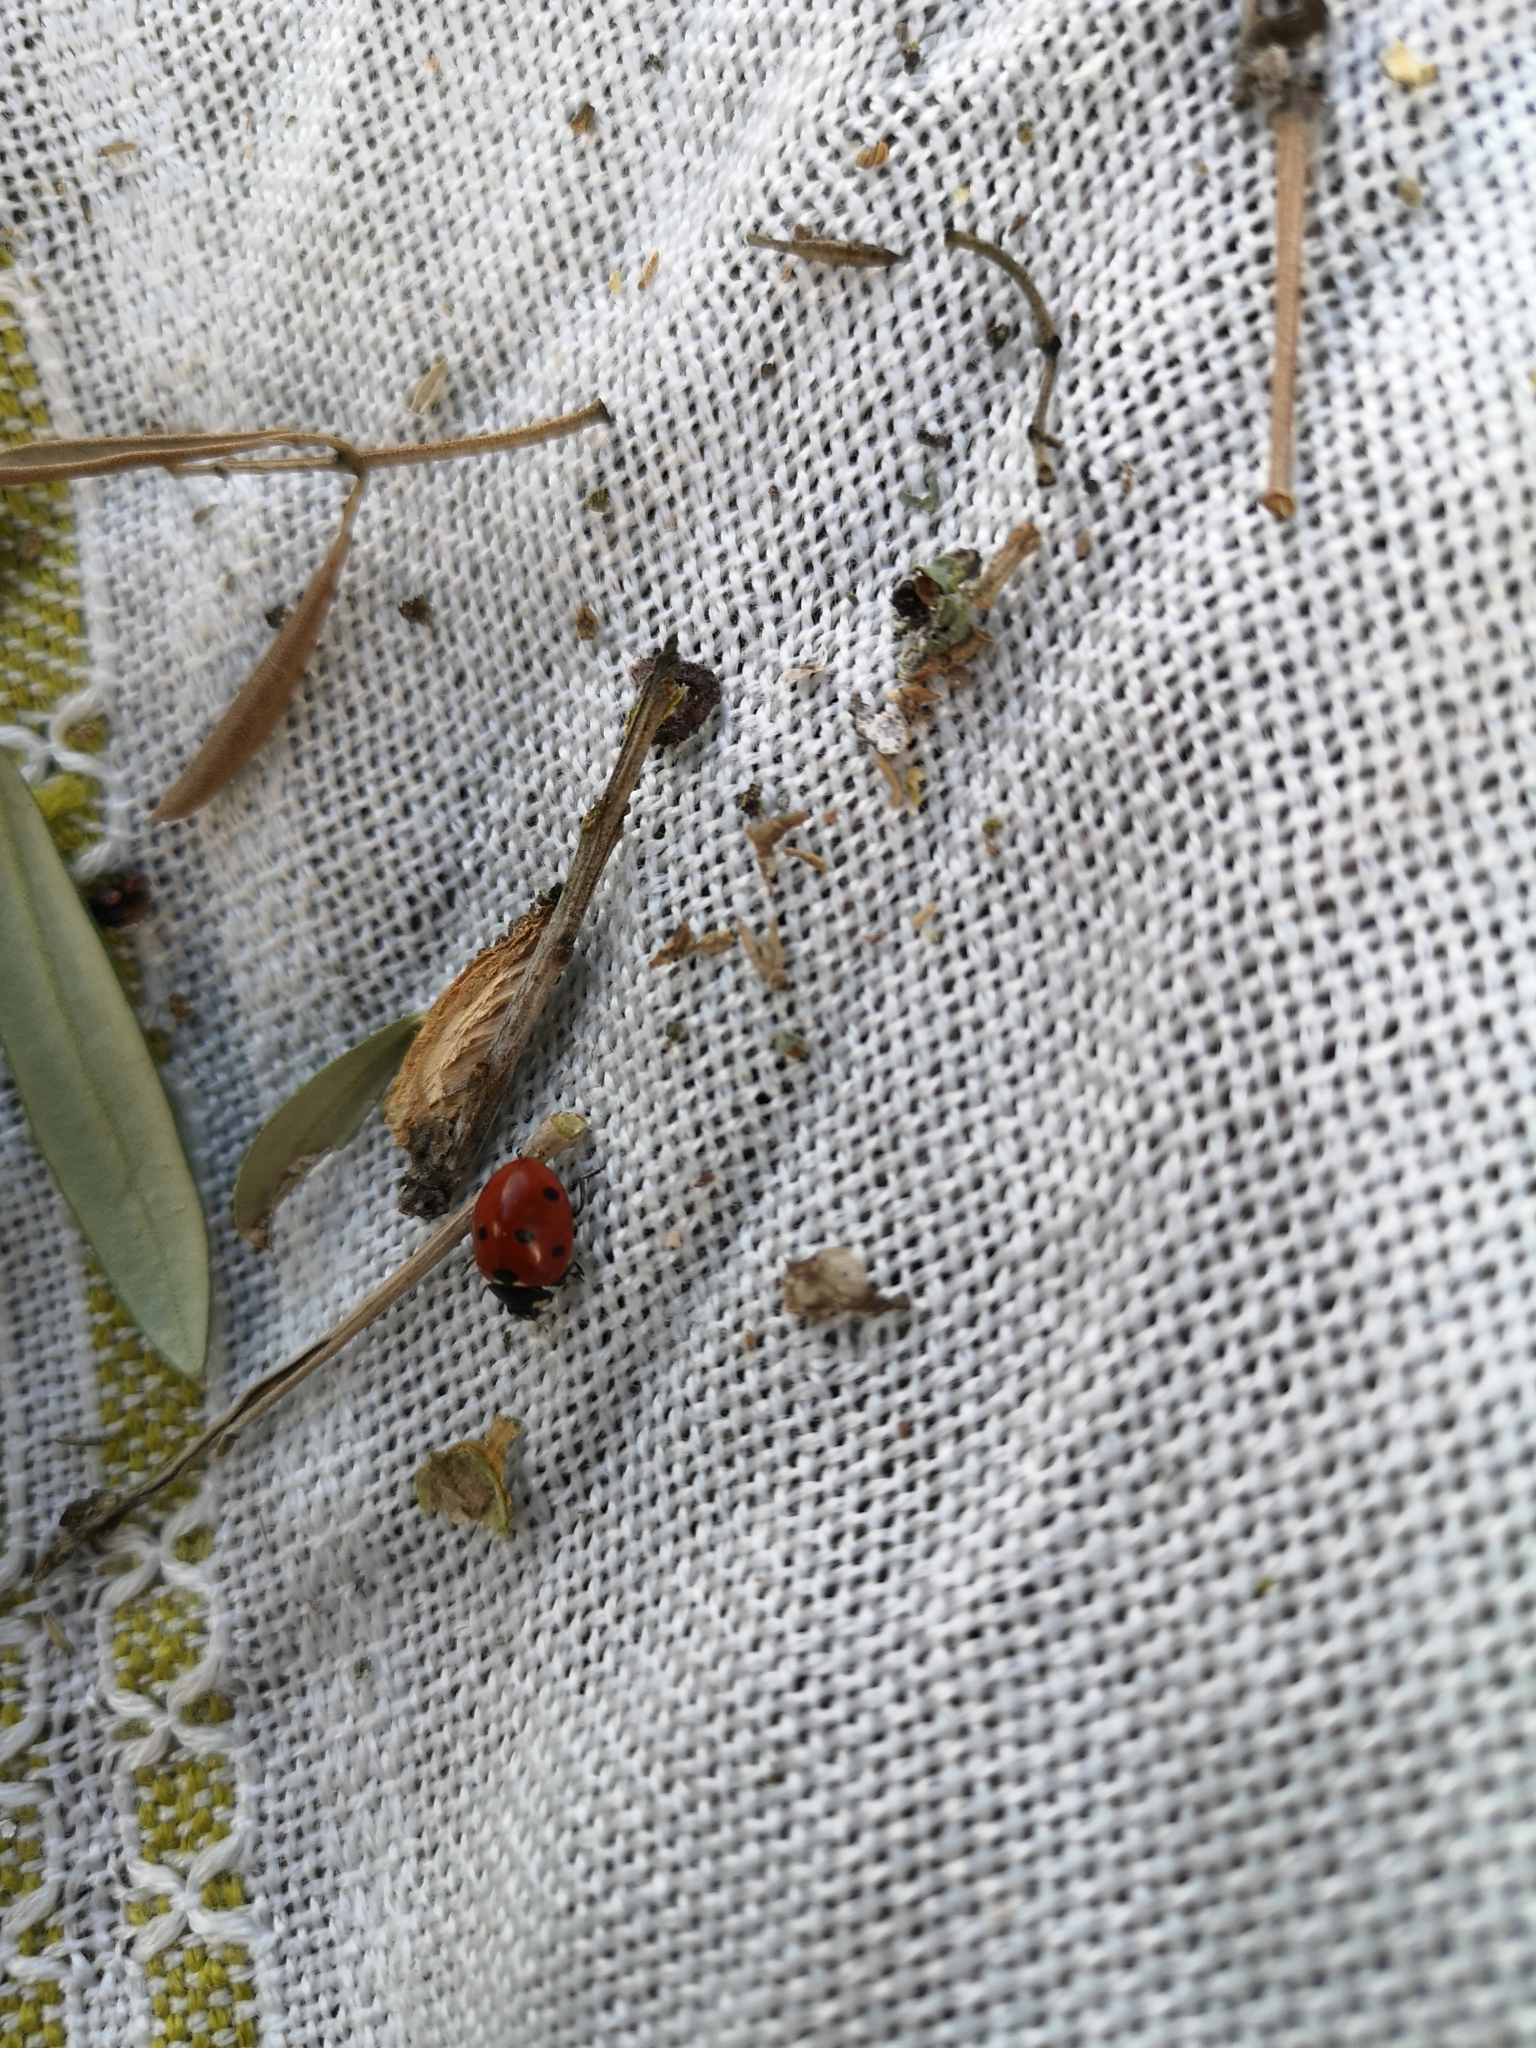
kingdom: Animalia
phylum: Arthropoda
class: Insecta
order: Coleoptera
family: Coccinellidae
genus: Coccinella
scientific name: Coccinella septempunctata
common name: Sevenspotted lady beetle
